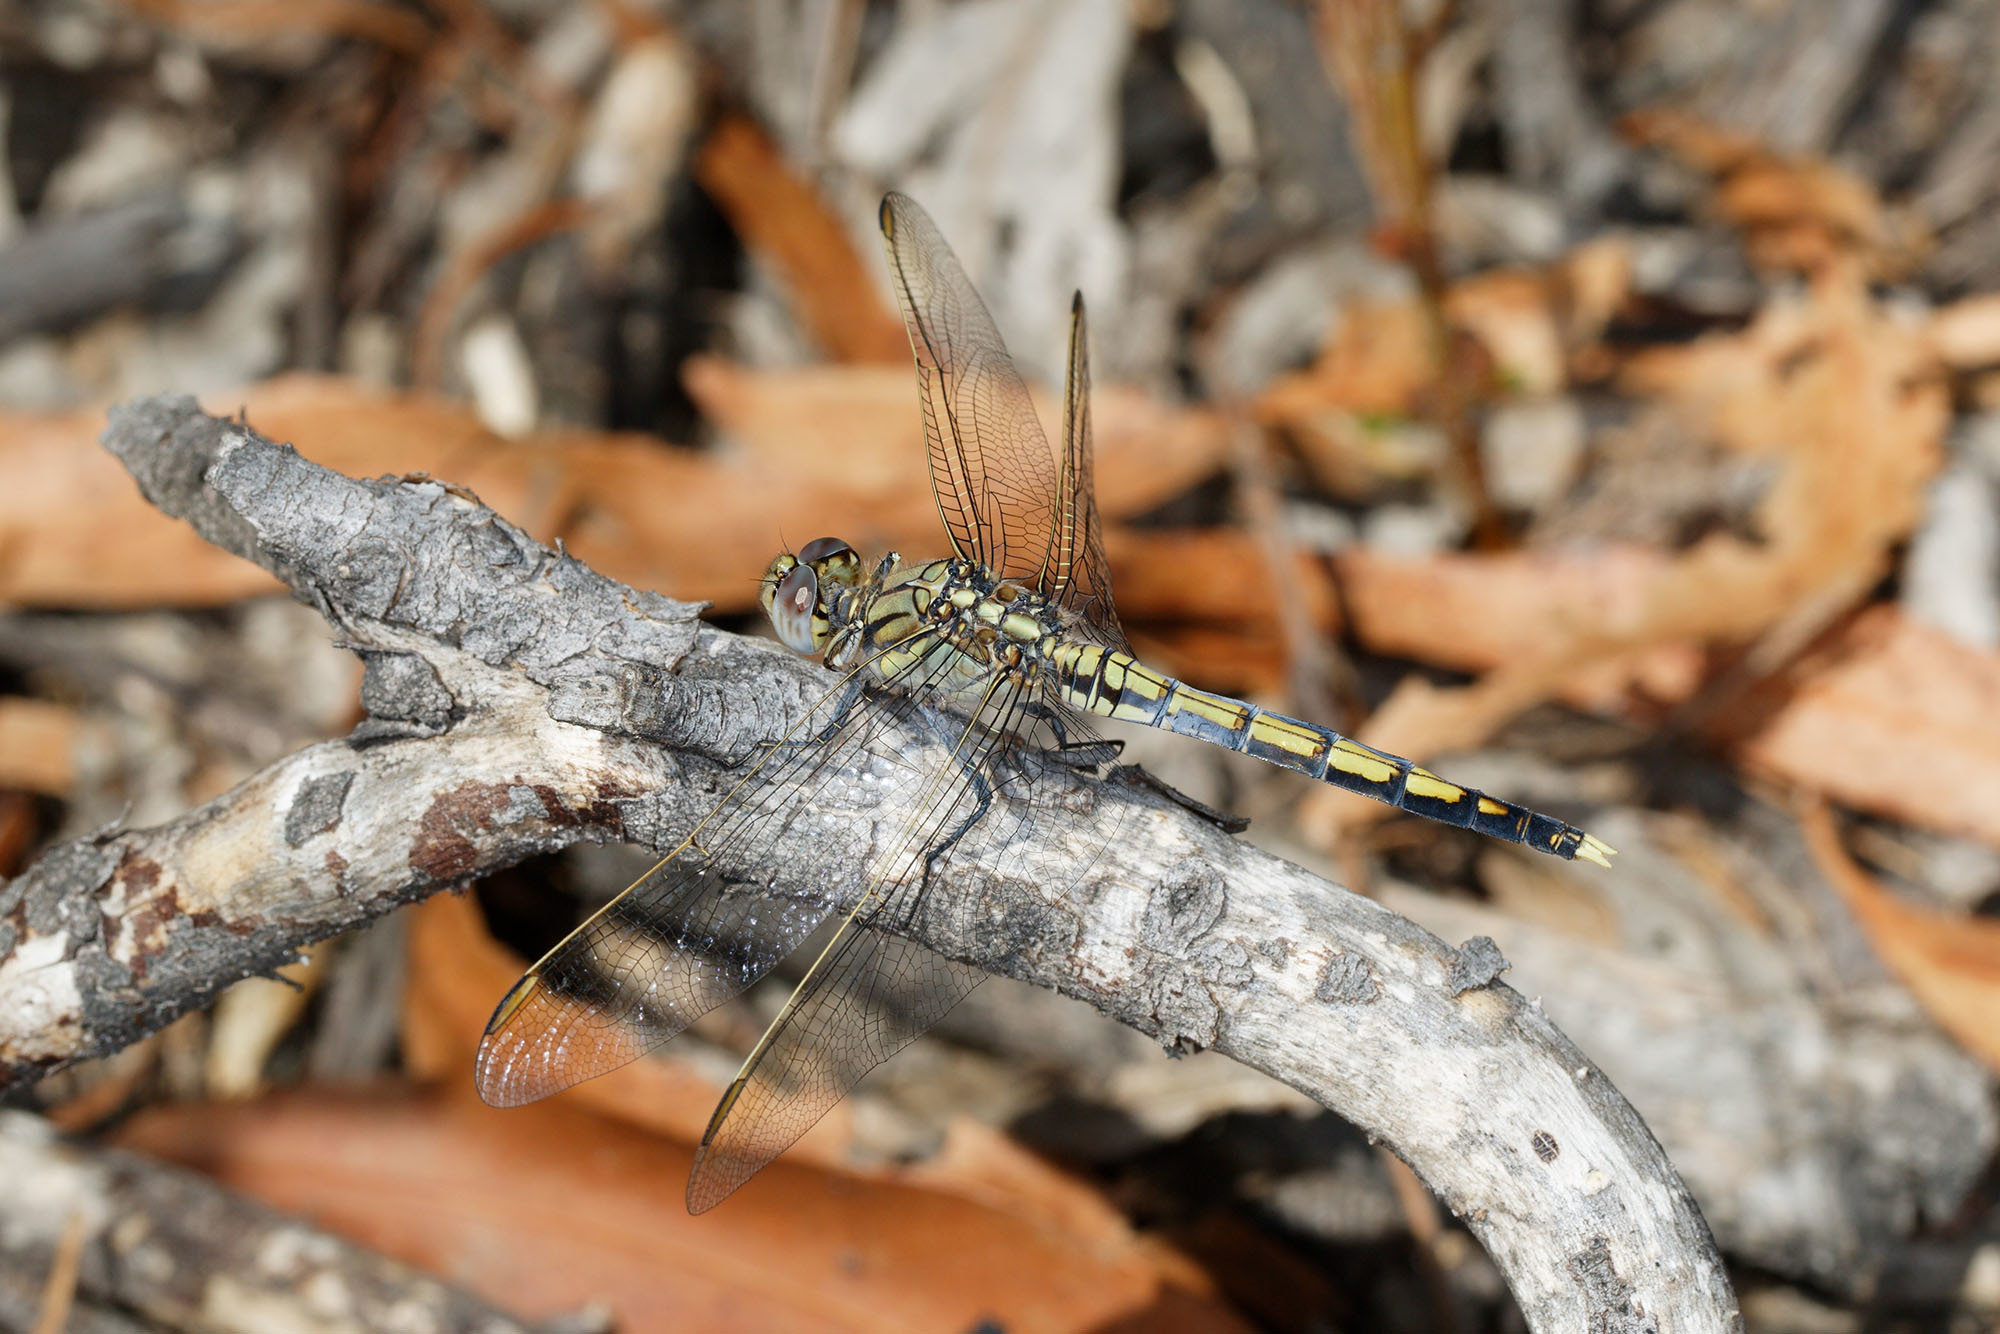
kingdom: Animalia
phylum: Arthropoda
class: Insecta
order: Odonata
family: Libellulidae
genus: Orthetrum
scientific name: Orthetrum caledonicum
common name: Blue skimmer
